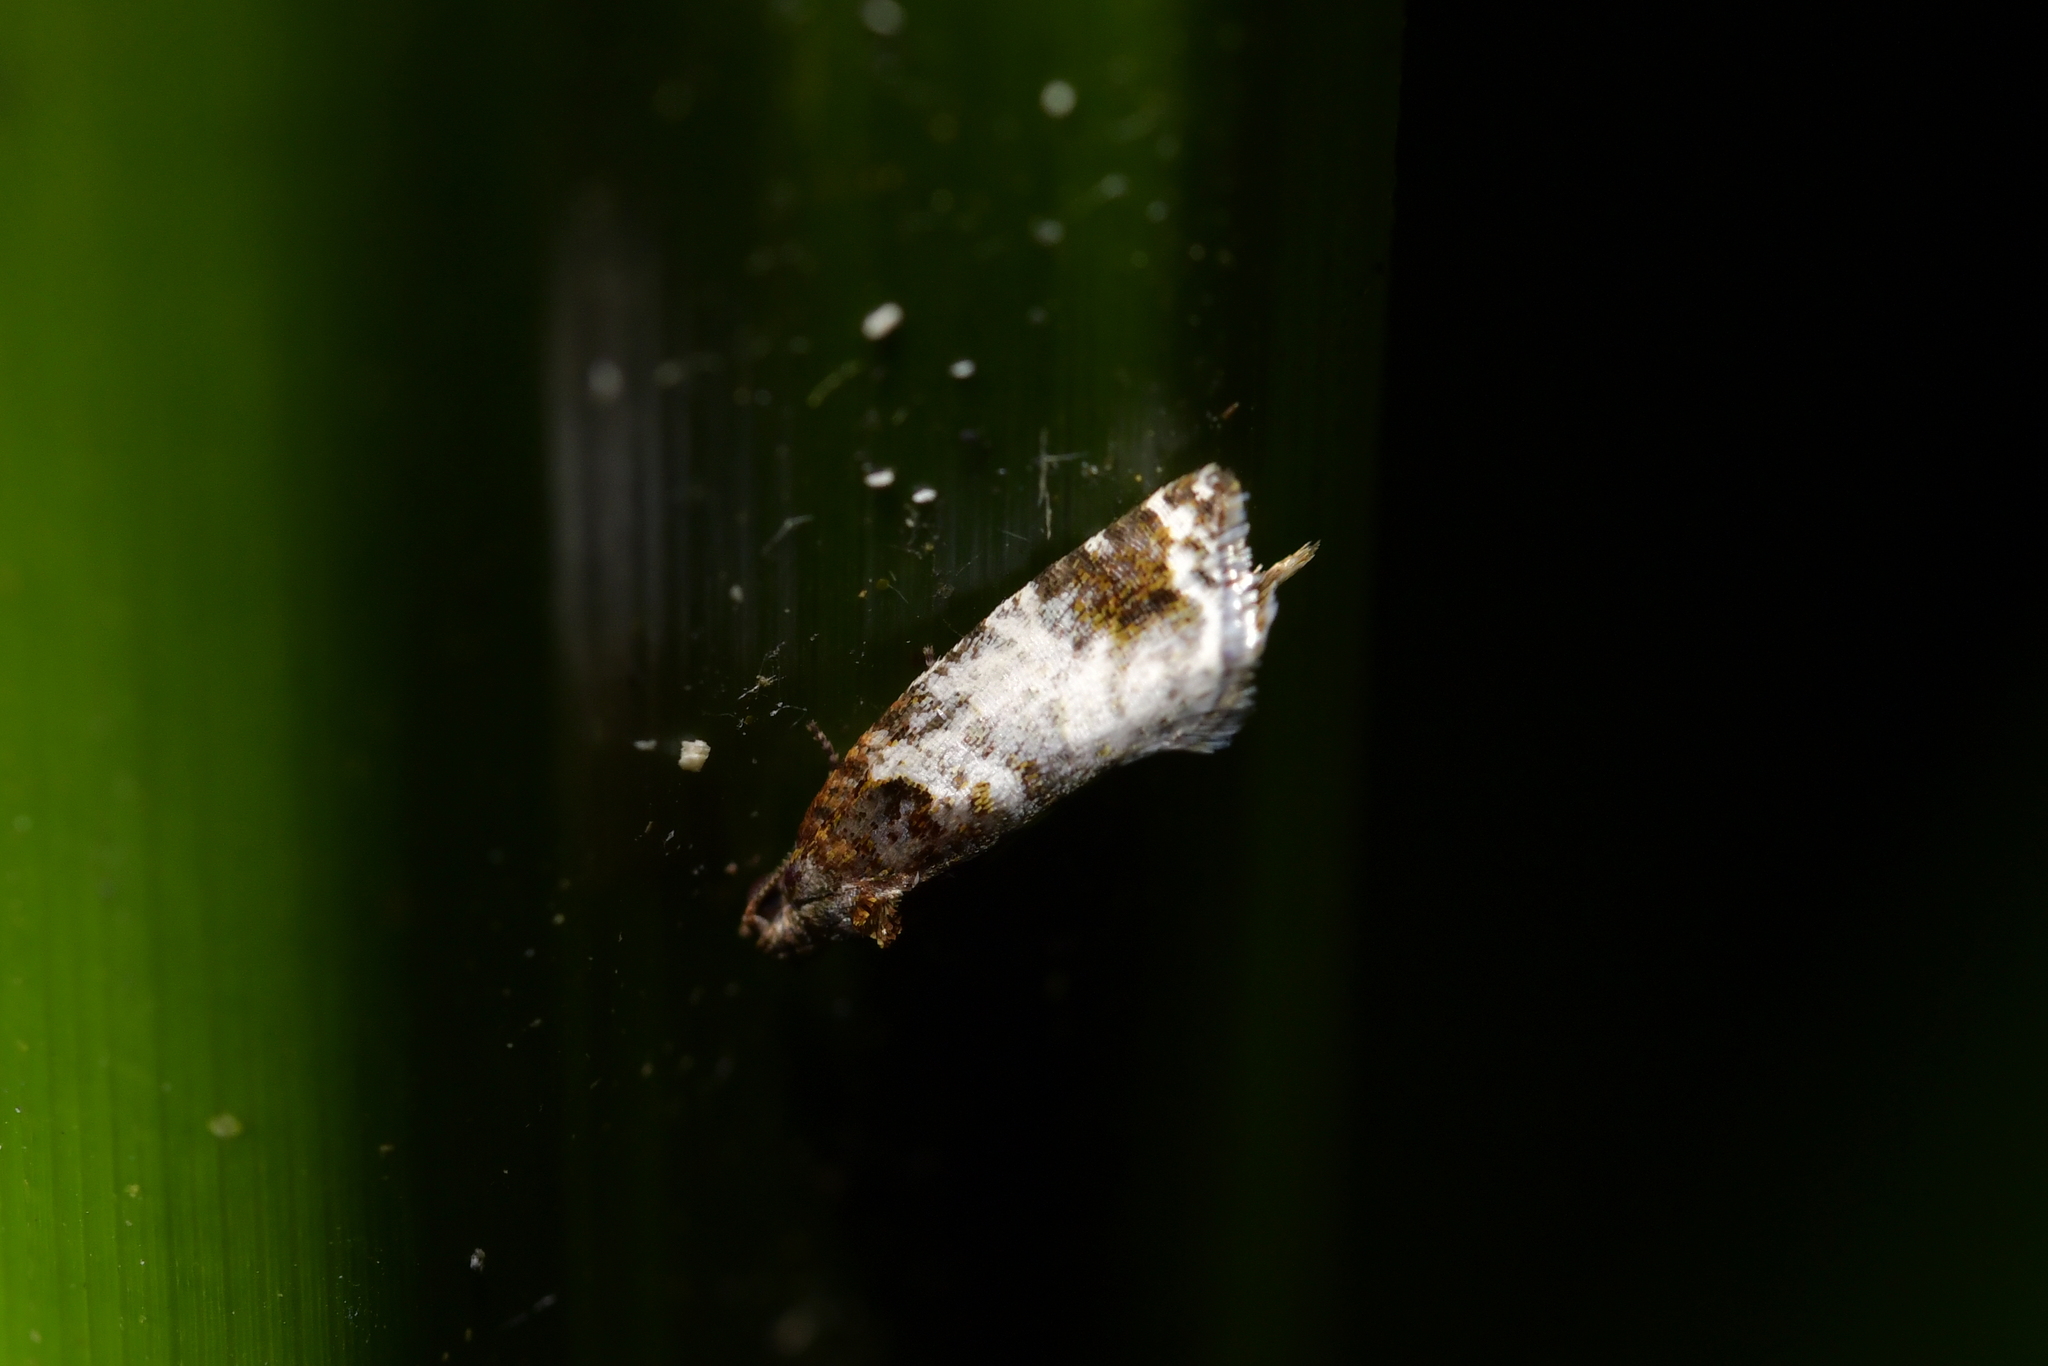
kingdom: Animalia
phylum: Arthropoda
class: Insecta
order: Lepidoptera
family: Tortricidae
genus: Pyrgotis
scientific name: Pyrgotis calligypsa
